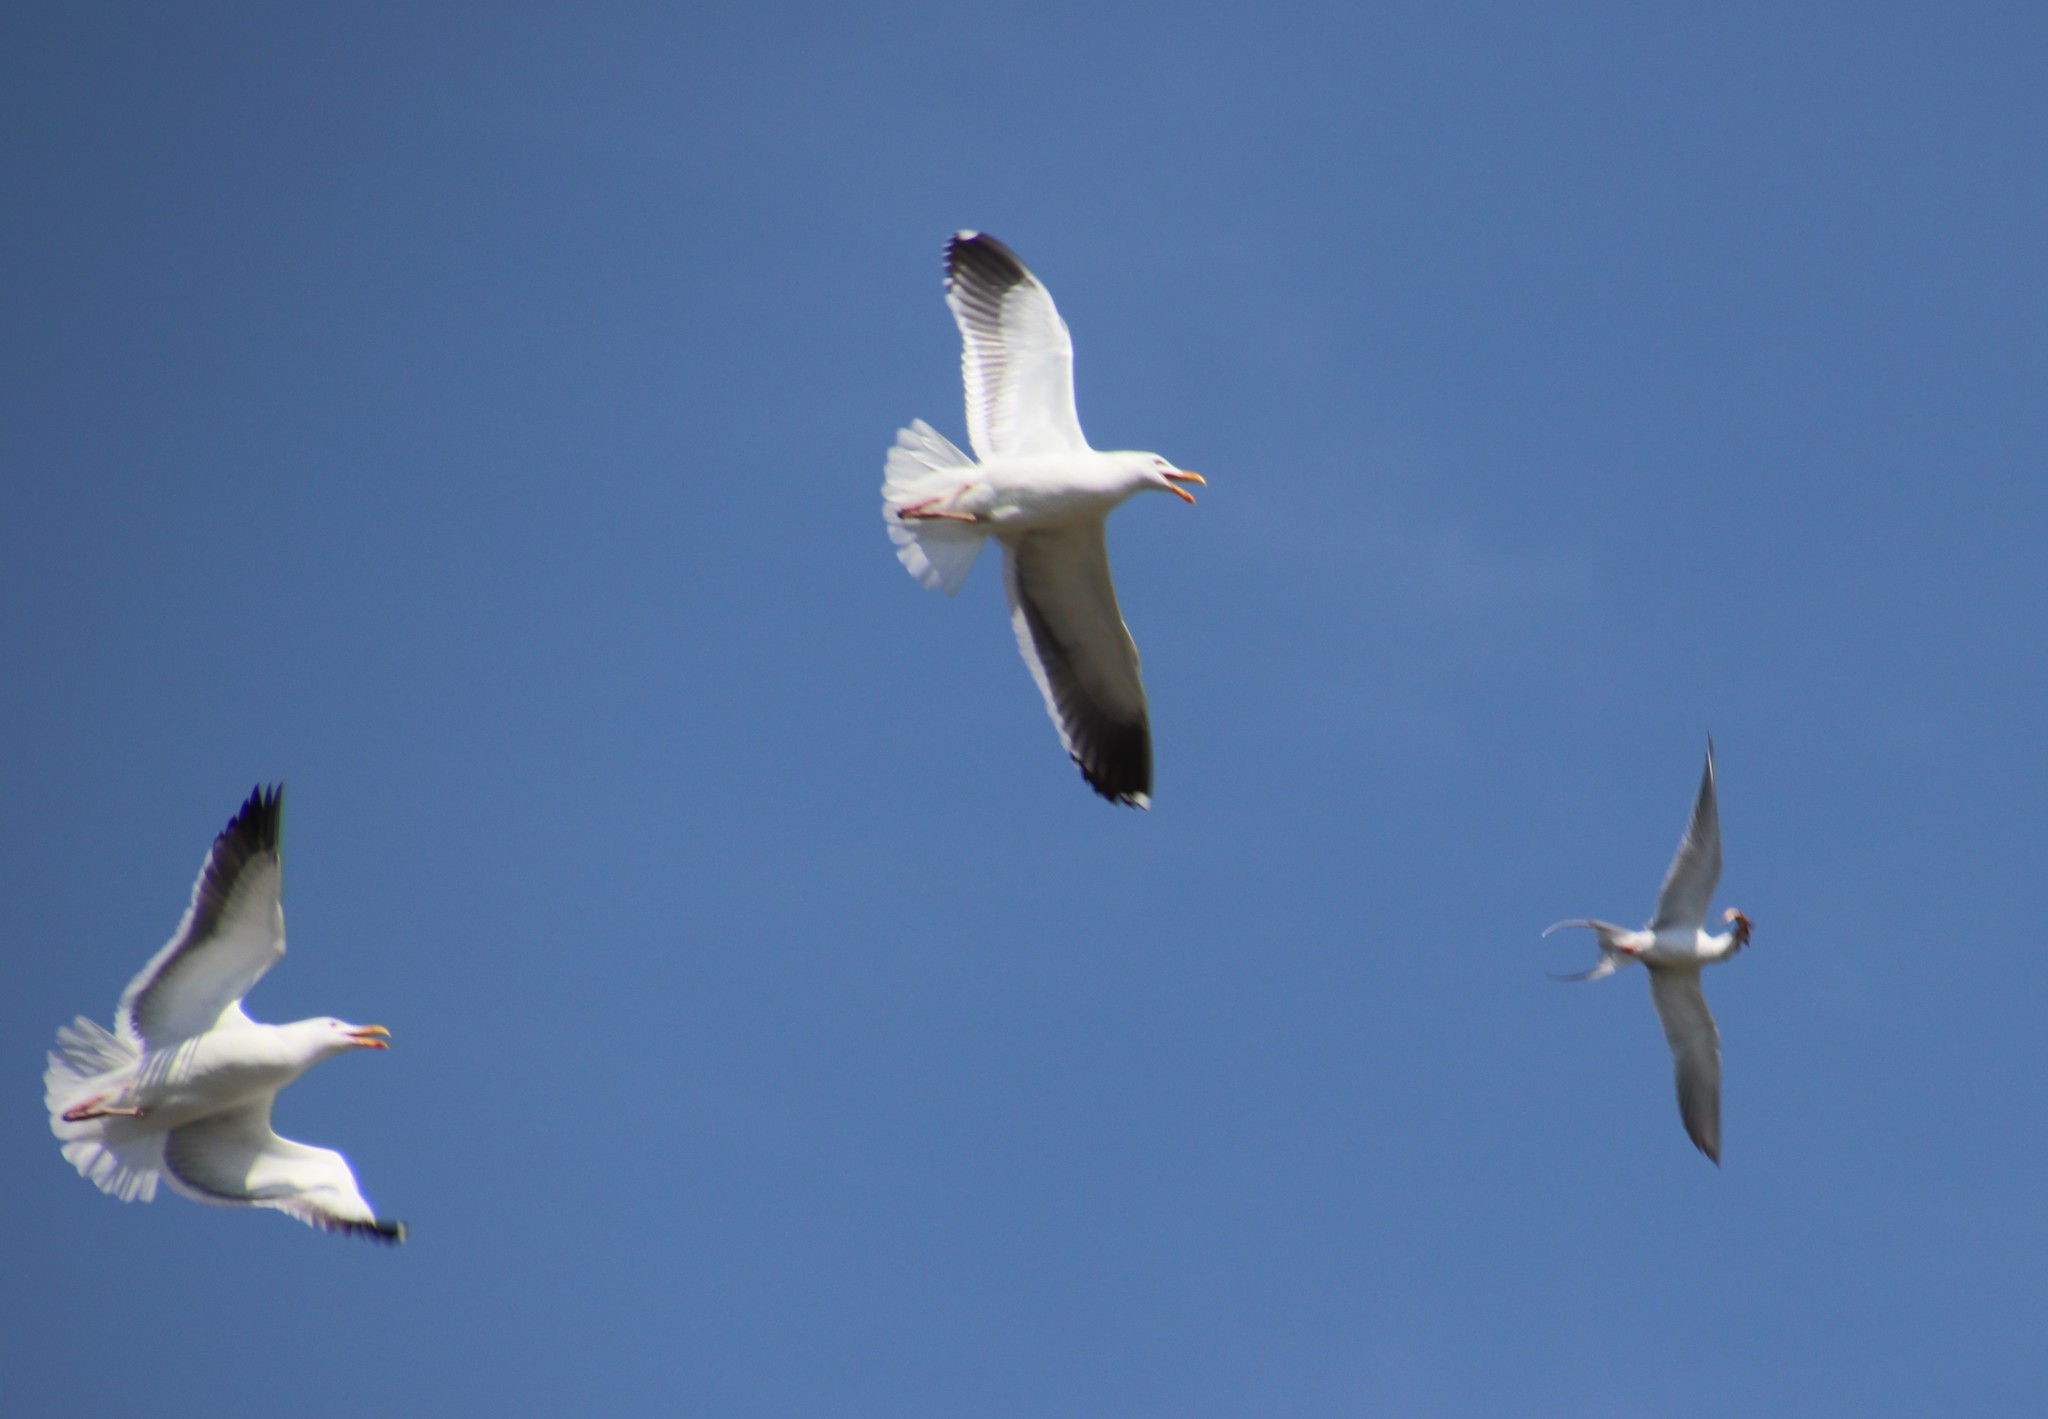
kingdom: Animalia
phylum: Chordata
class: Aves
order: Charadriiformes
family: Laridae
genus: Sterna
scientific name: Sterna forsteri
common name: Forster's tern
